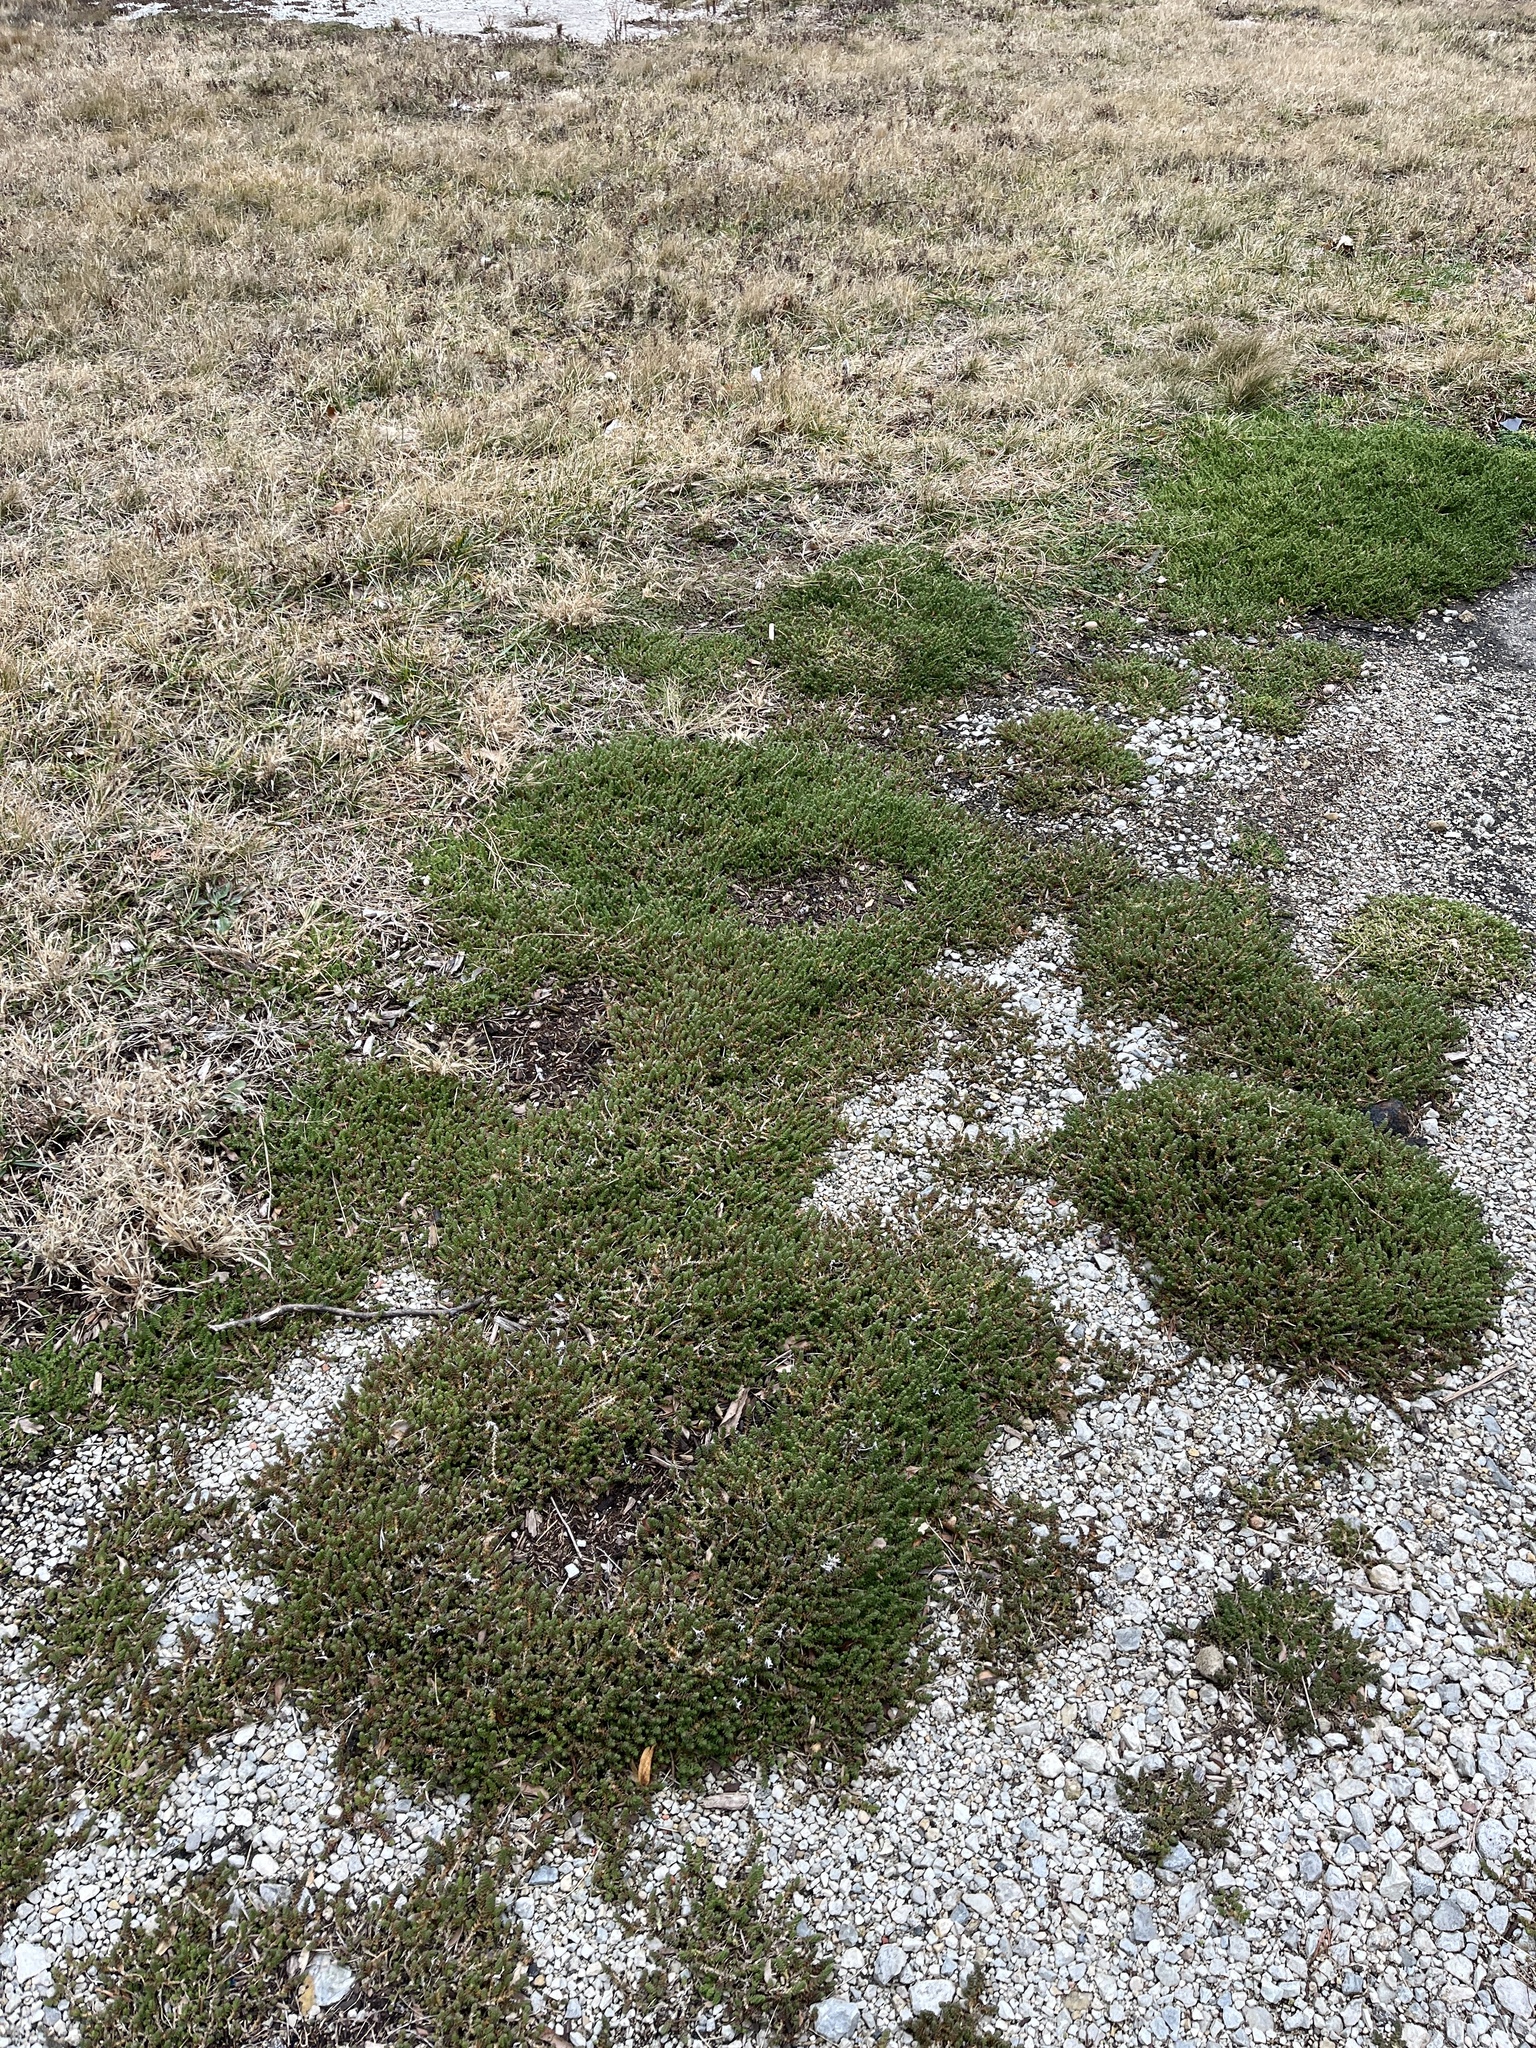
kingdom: Plantae
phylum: Tracheophyta
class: Magnoliopsida
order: Saxifragales
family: Crassulaceae
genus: Sedum
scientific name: Sedum acre
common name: Biting stonecrop
